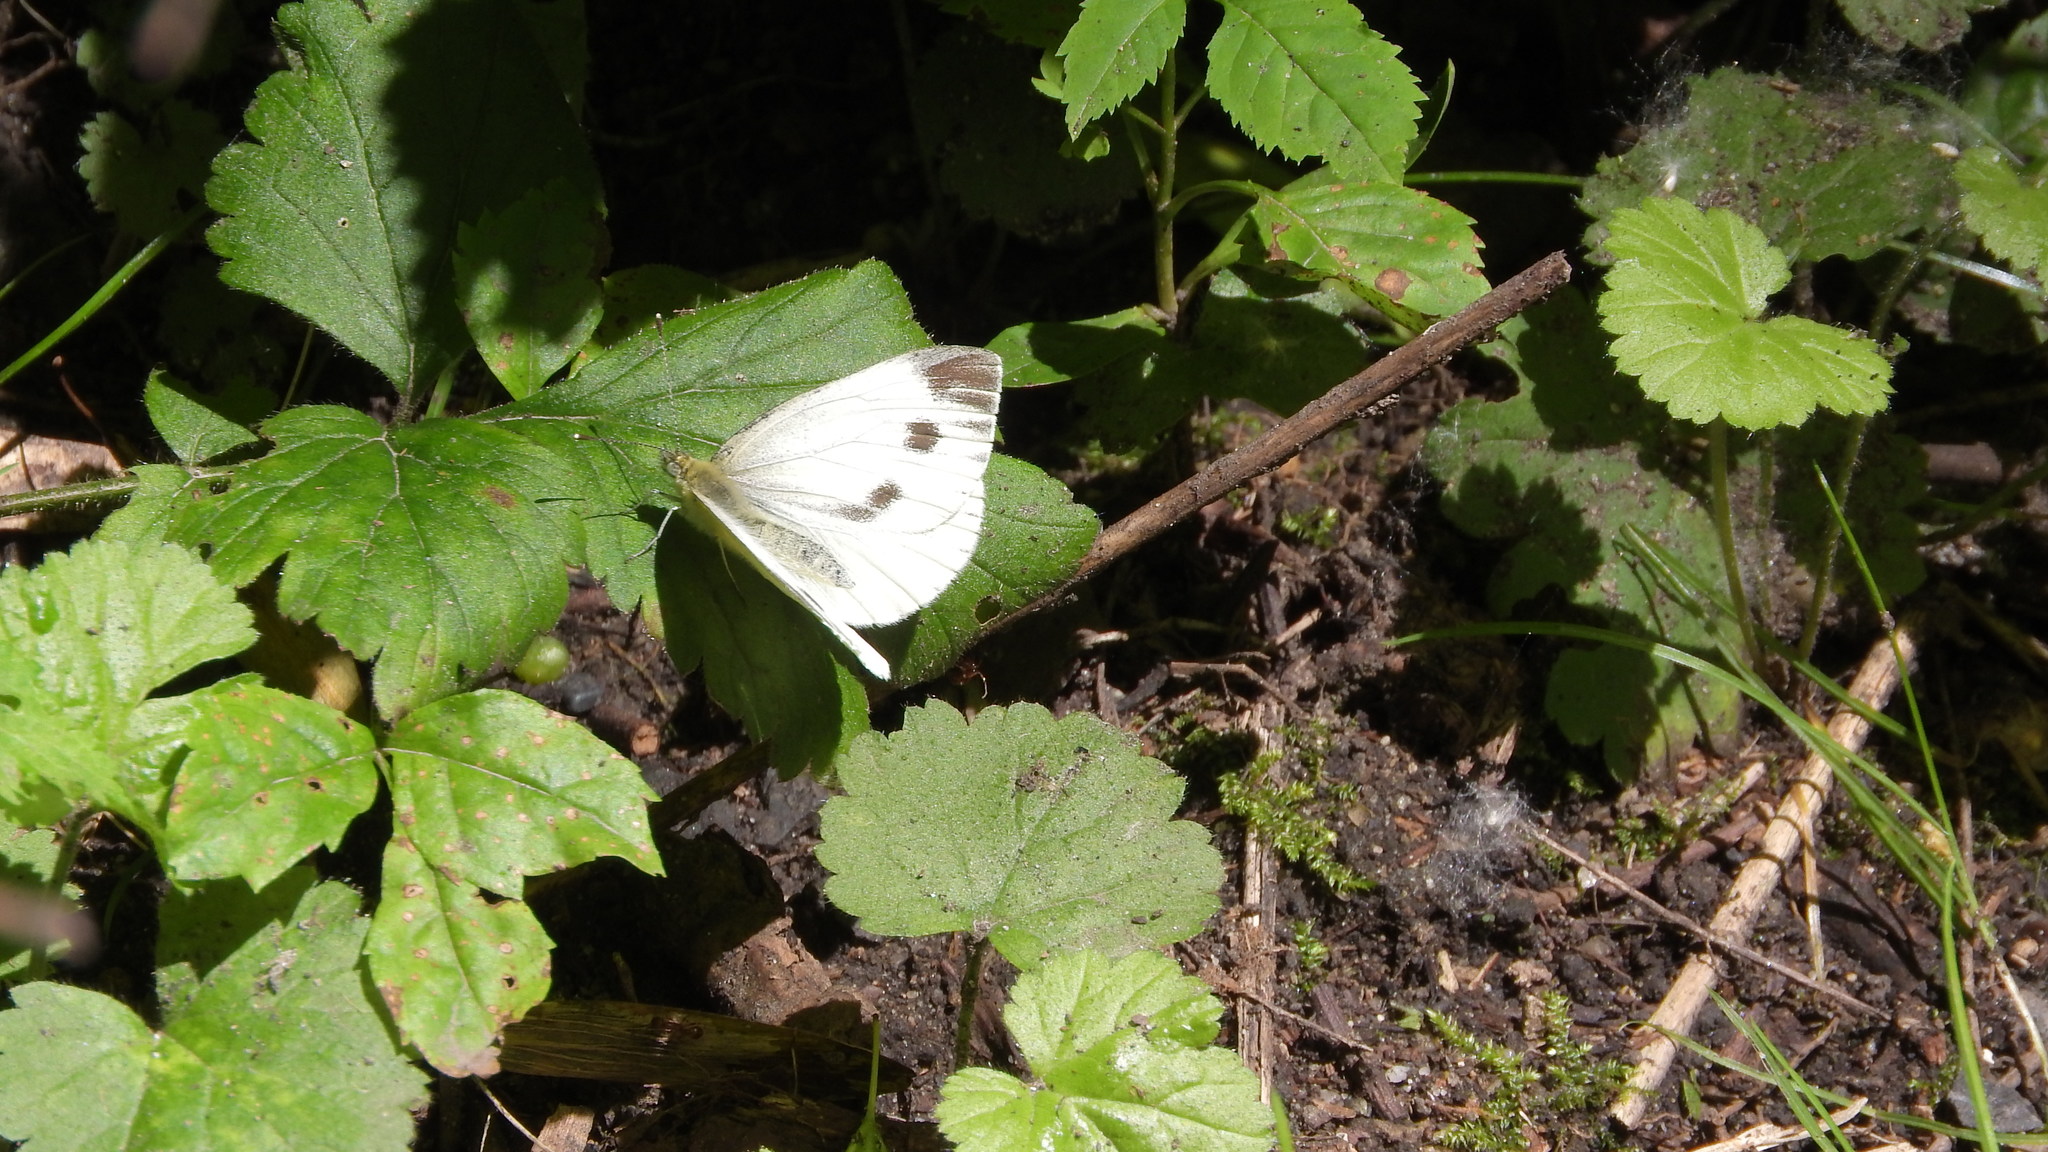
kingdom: Animalia
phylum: Arthropoda
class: Insecta
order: Lepidoptera
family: Pieridae
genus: Pieris
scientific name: Pieris napi
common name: Green-veined white
